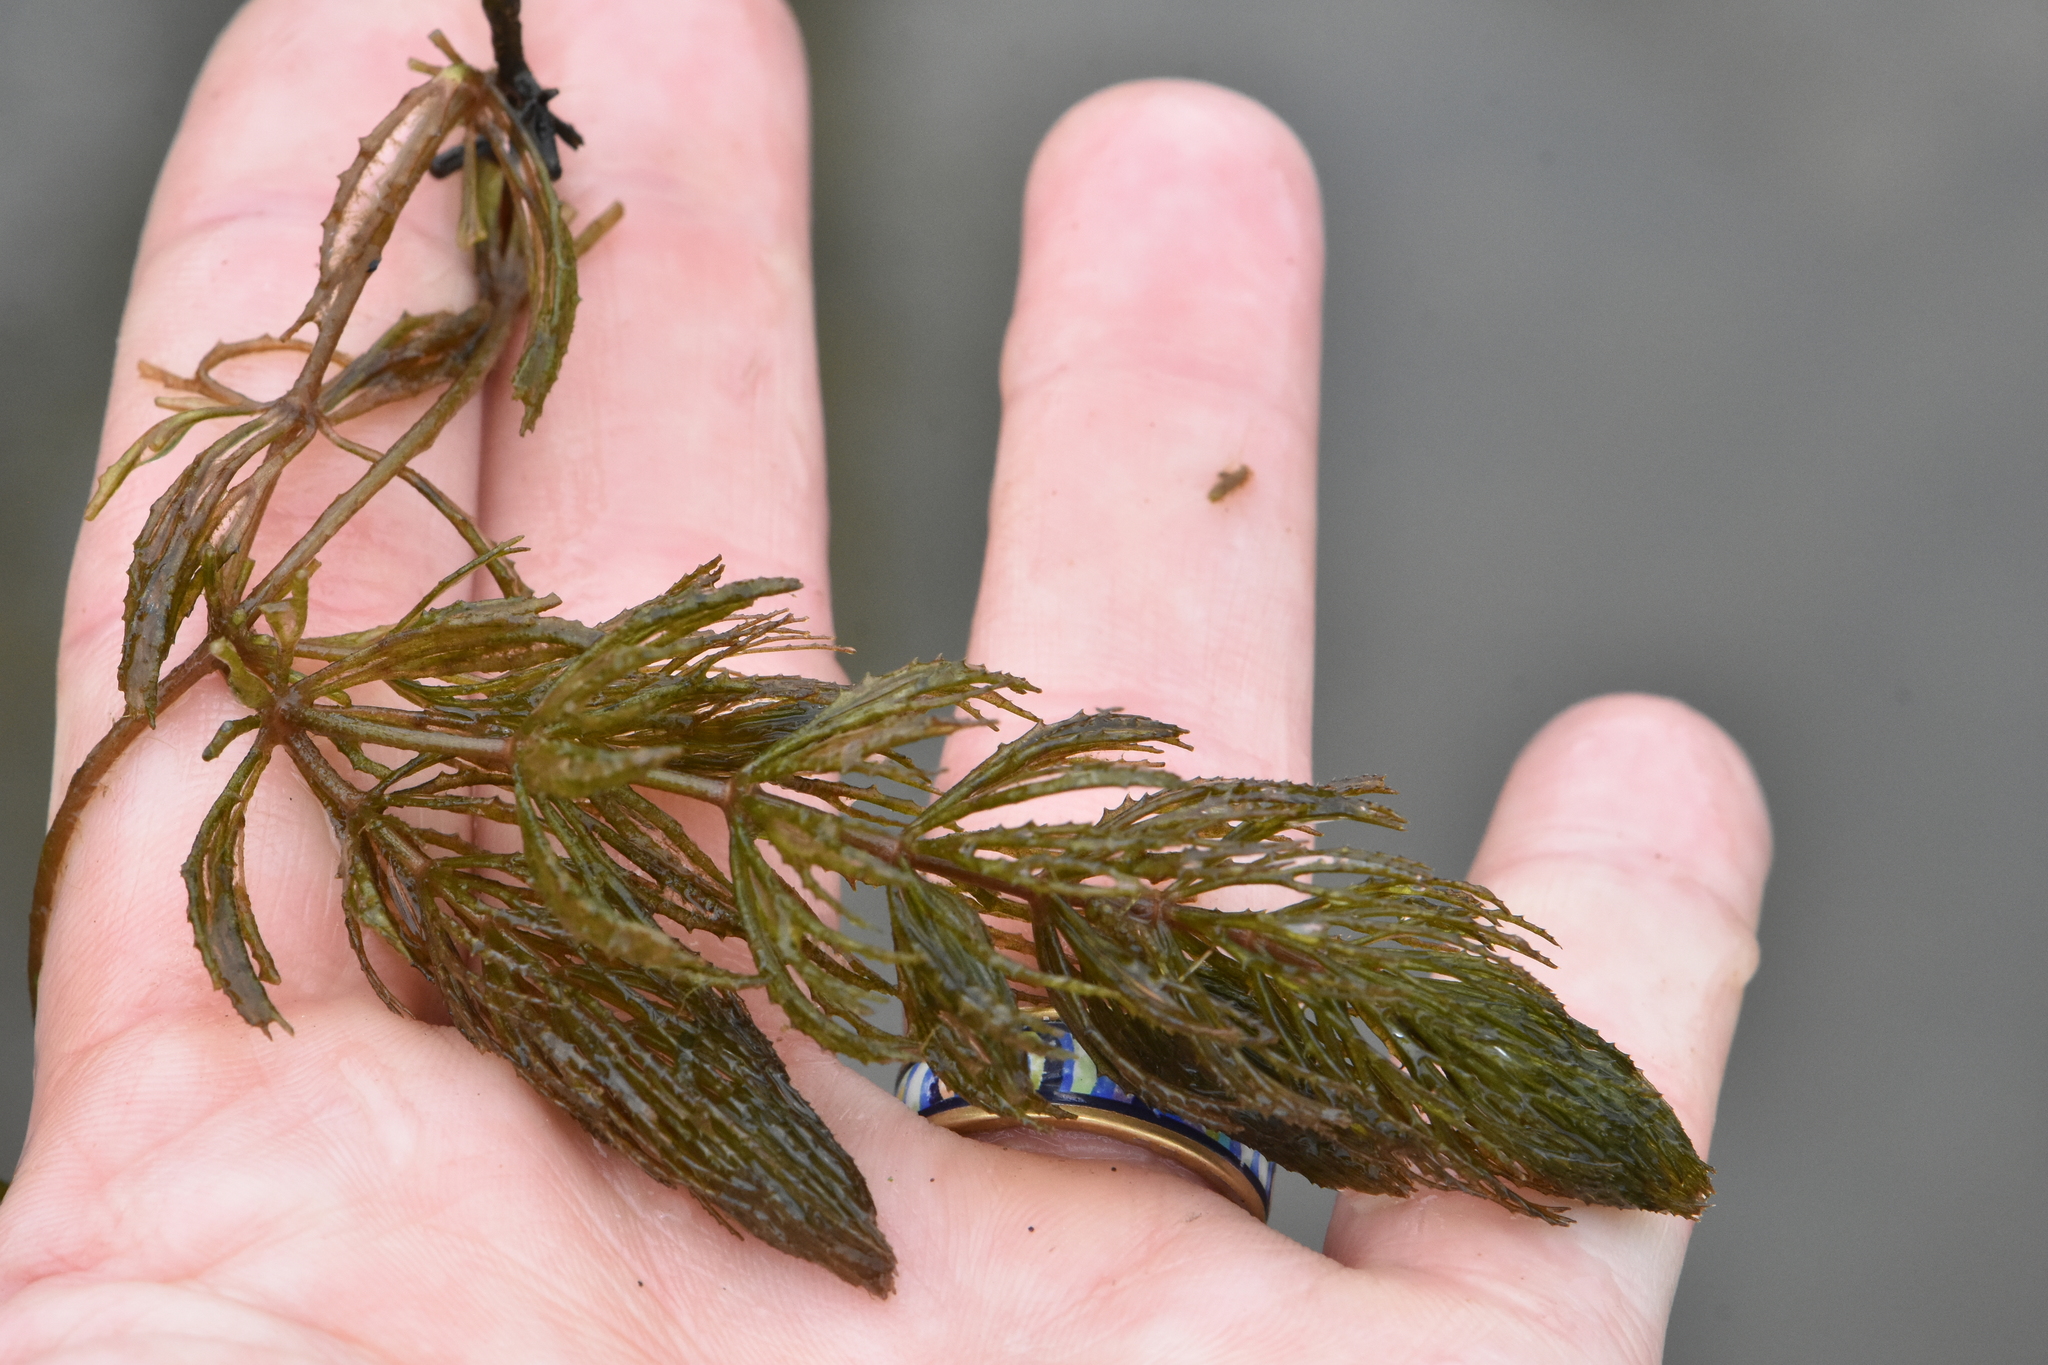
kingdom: Plantae
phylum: Tracheophyta
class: Magnoliopsida
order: Ceratophyllales
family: Ceratophyllaceae
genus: Ceratophyllum
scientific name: Ceratophyllum demersum
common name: Rigid hornwort
